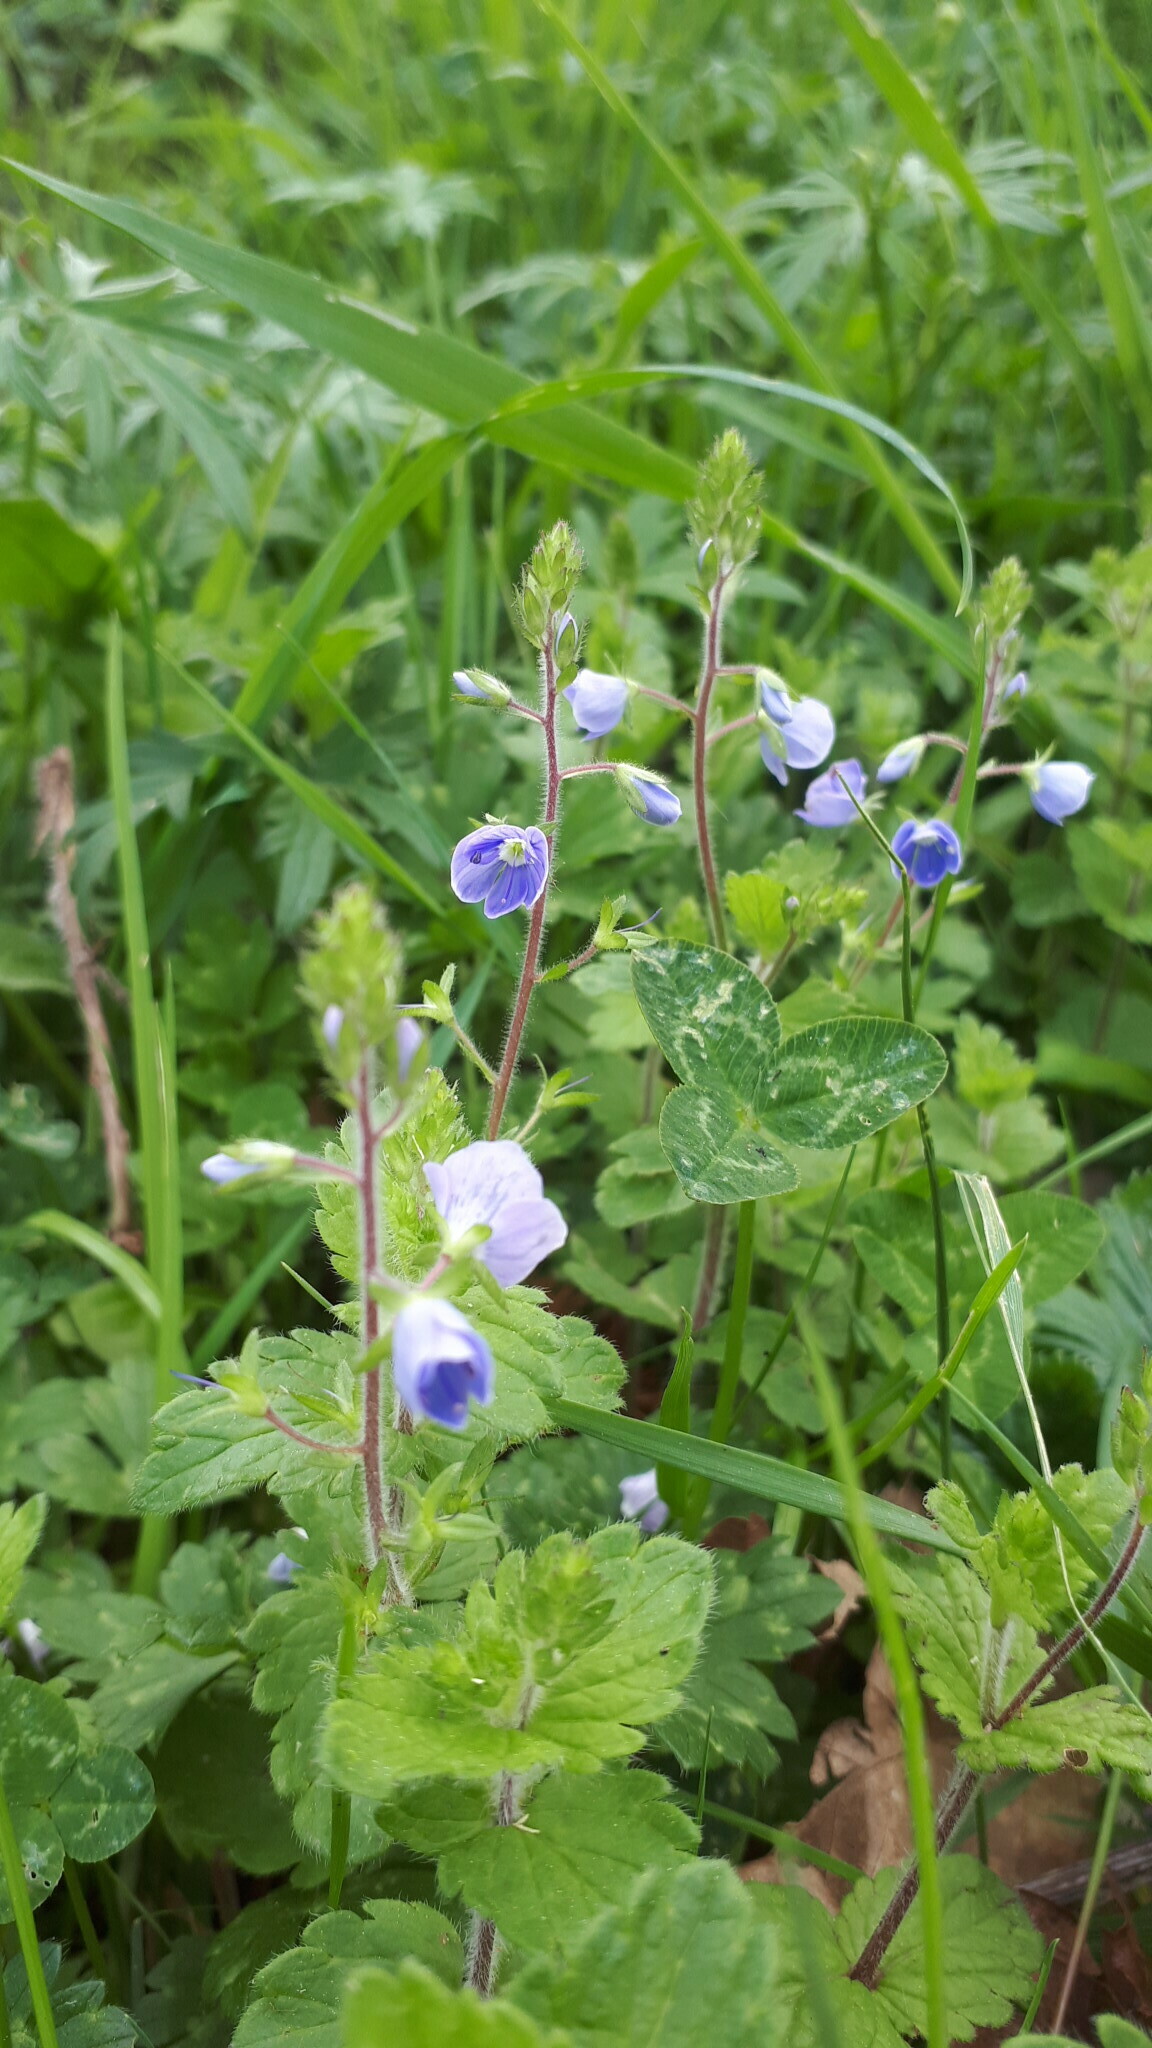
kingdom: Plantae
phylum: Tracheophyta
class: Magnoliopsida
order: Lamiales
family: Plantaginaceae
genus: Veronica
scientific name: Veronica chamaedrys
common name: Germander speedwell
